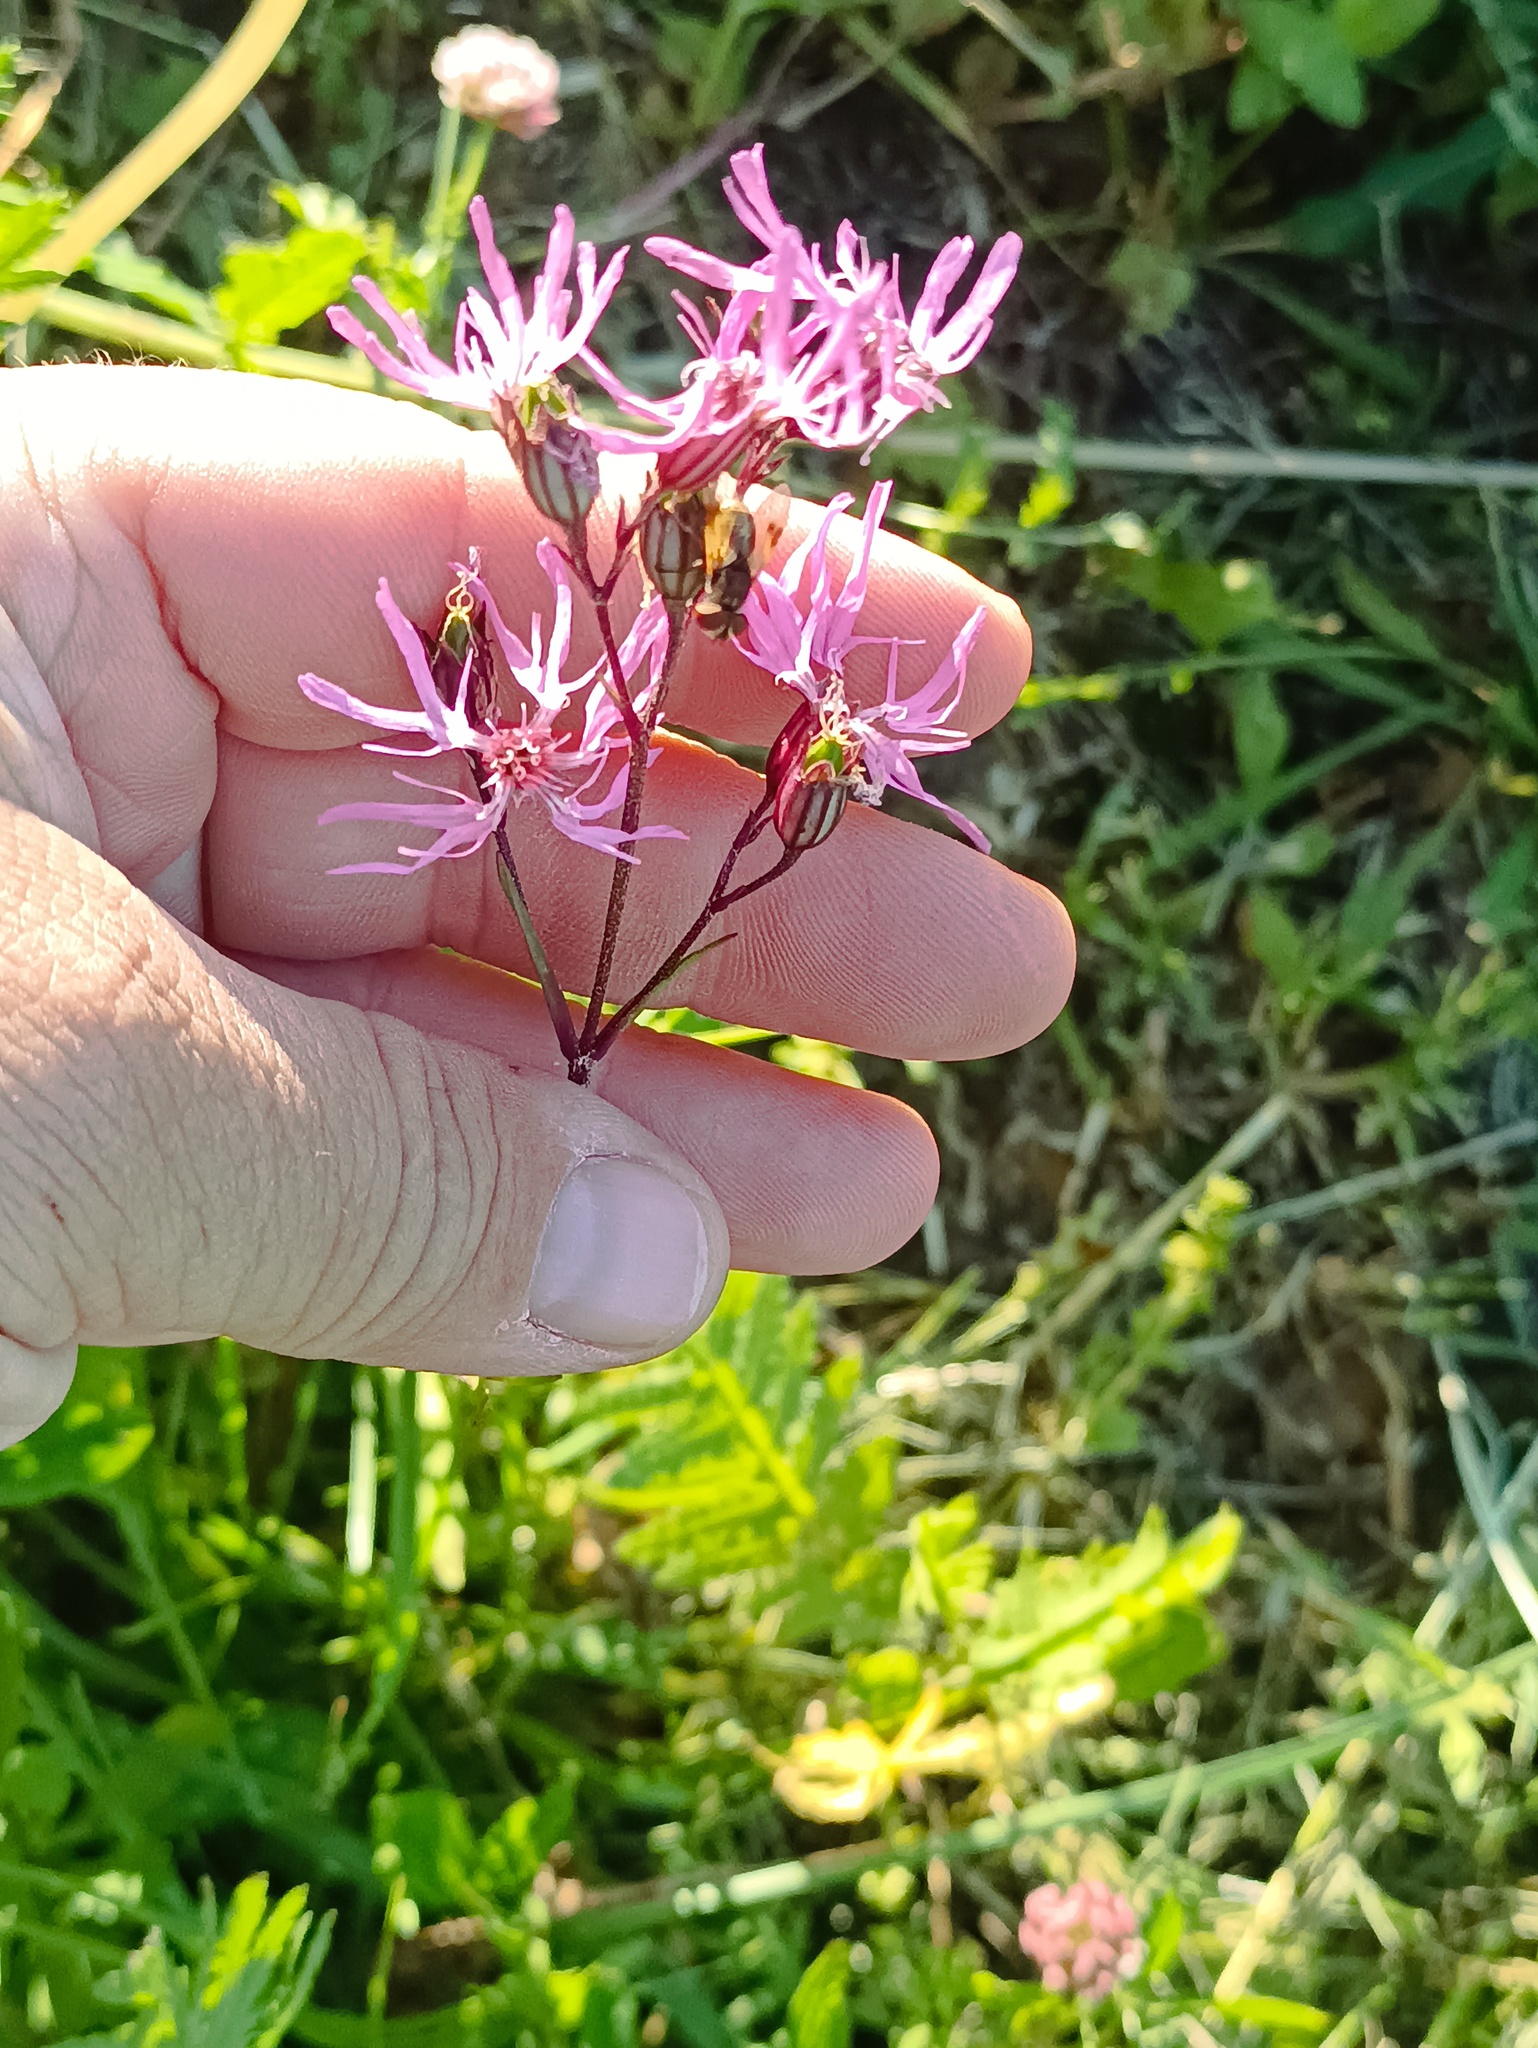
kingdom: Plantae
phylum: Tracheophyta
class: Magnoliopsida
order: Caryophyllales
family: Caryophyllaceae
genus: Silene
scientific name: Silene flos-cuculi
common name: Ragged-robin
